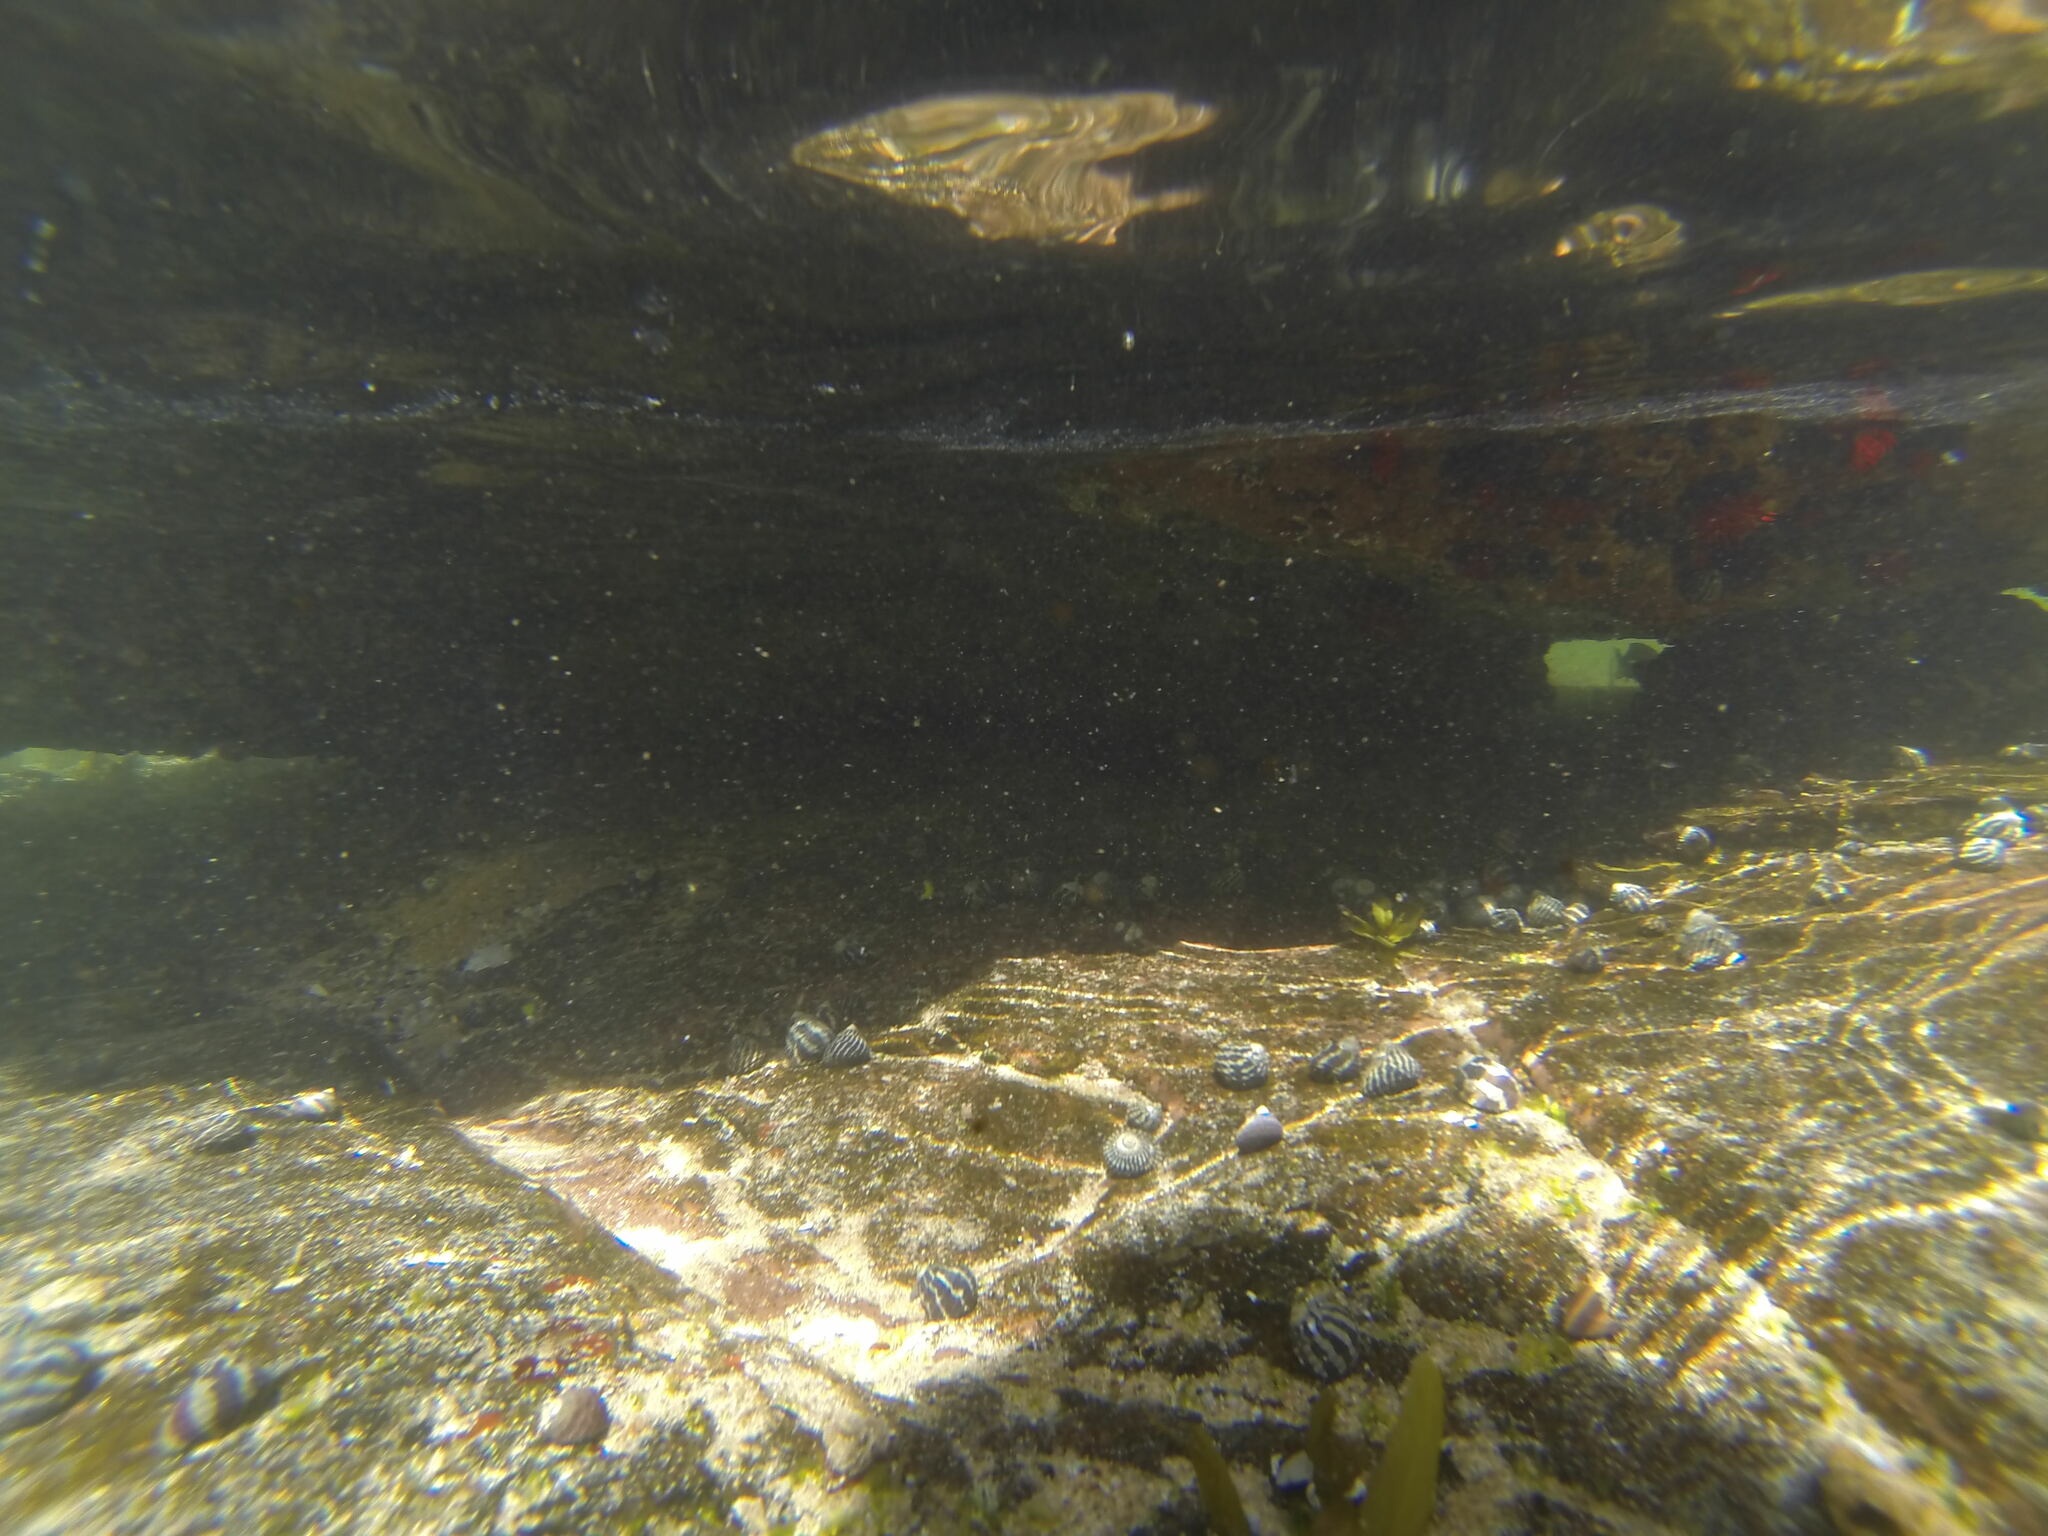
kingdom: Animalia
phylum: Cnidaria
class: Anthozoa
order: Actiniaria
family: Actiniidae
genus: Actinia
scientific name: Actinia tenebrosa
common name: Waratah anemone
